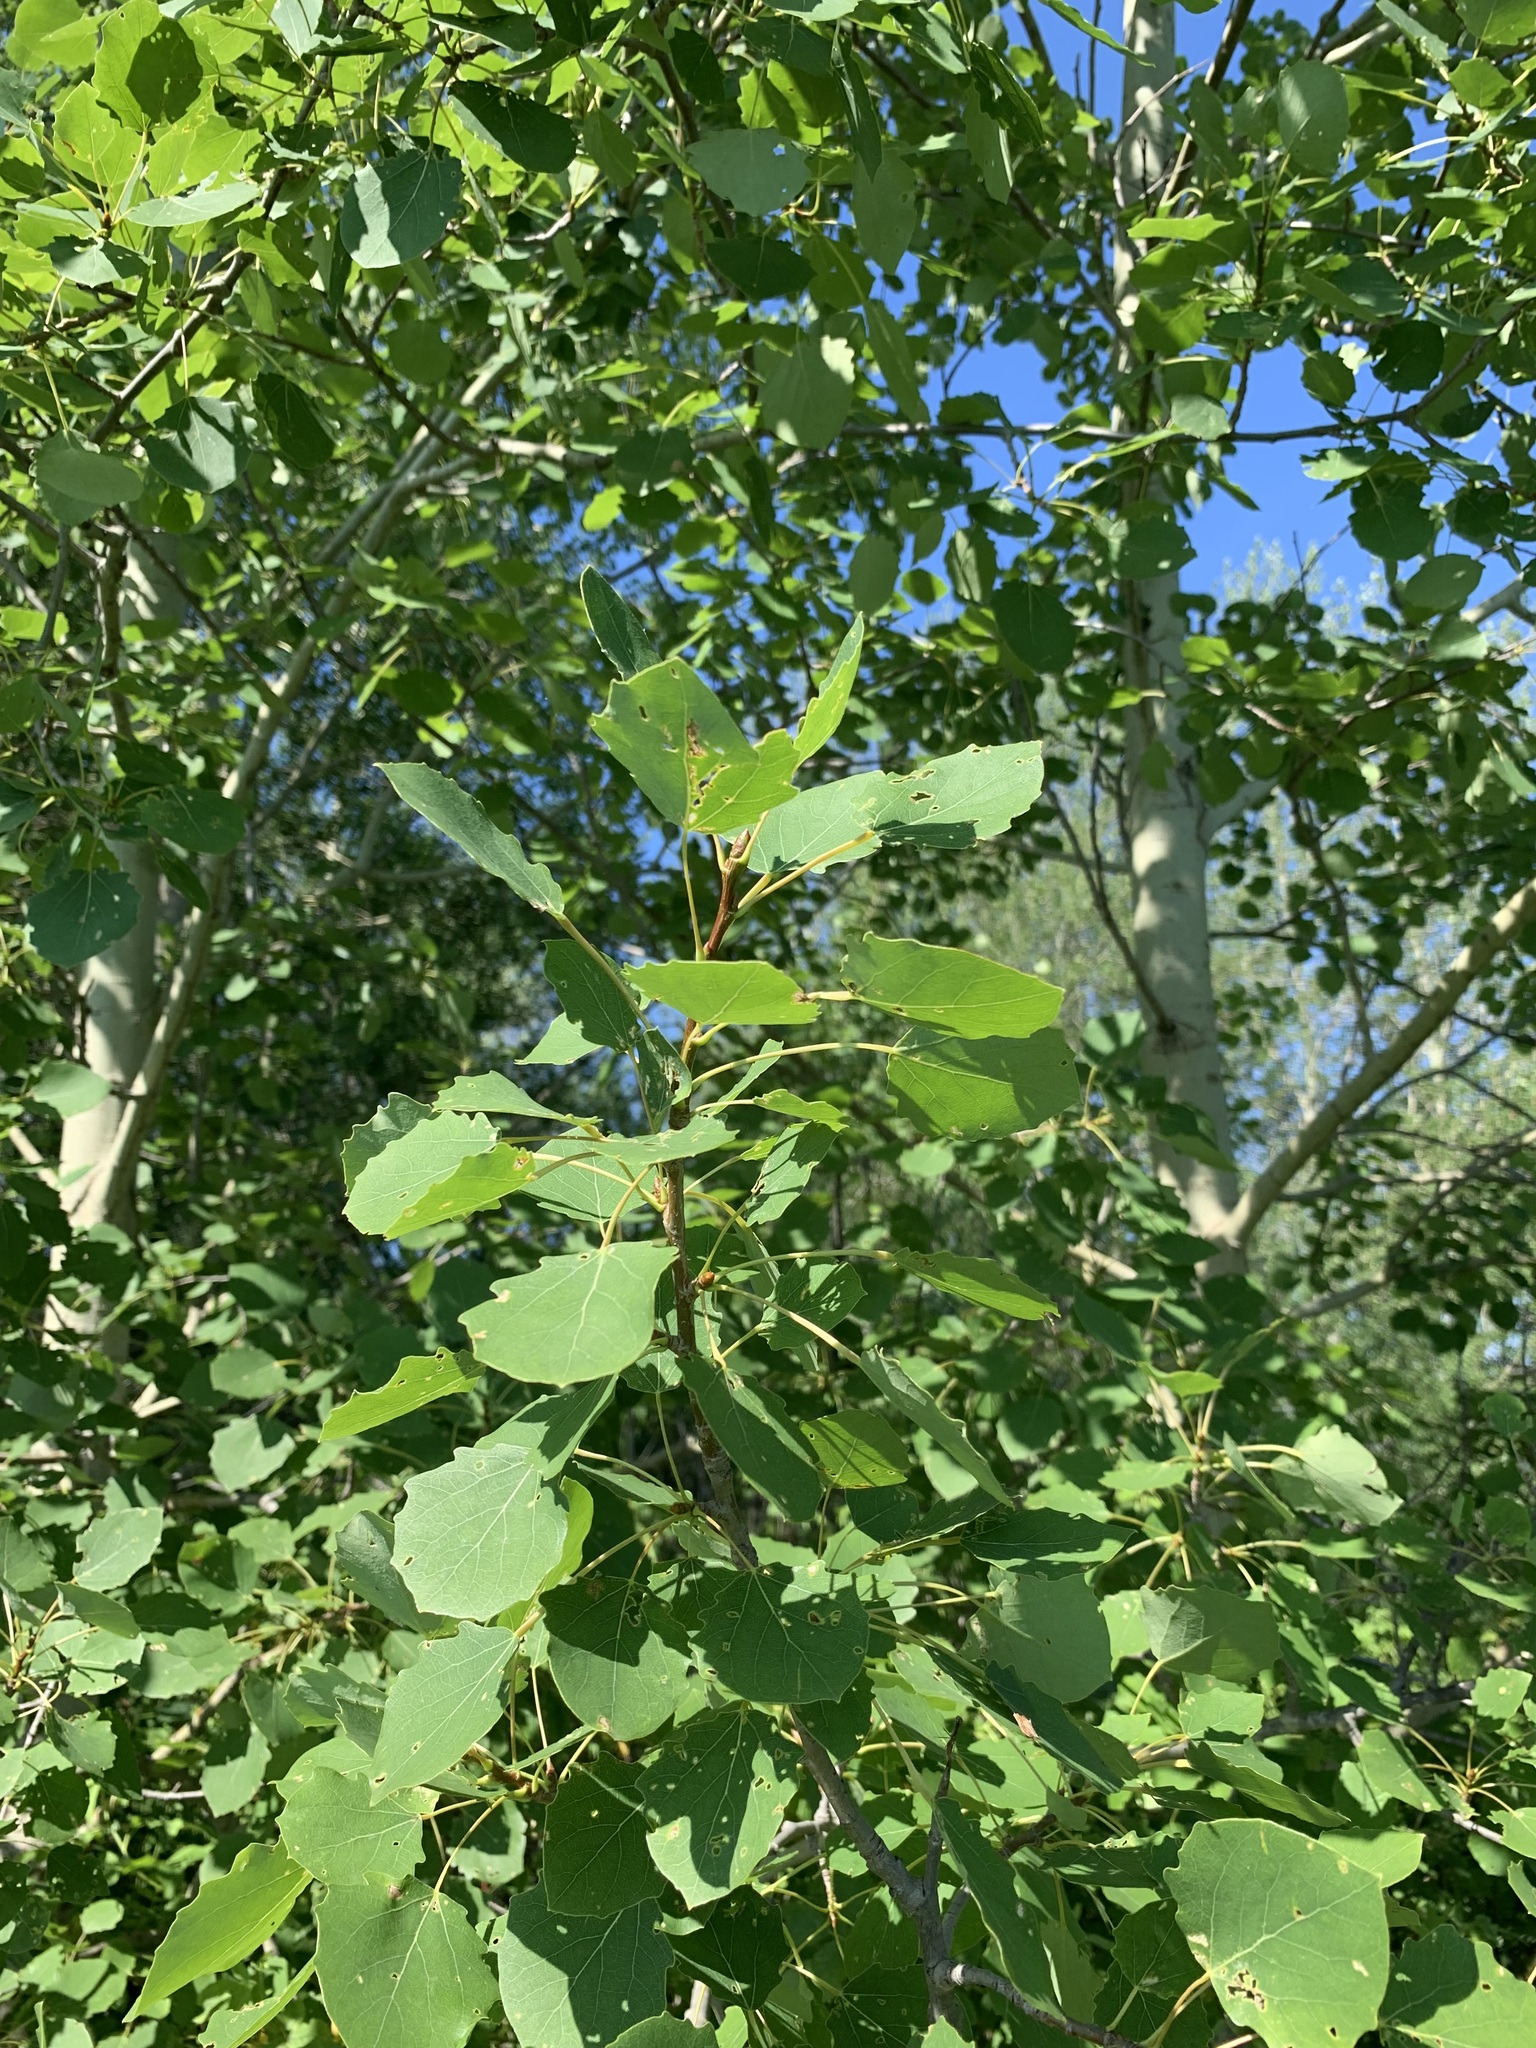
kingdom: Plantae
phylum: Tracheophyta
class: Magnoliopsida
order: Malpighiales
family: Salicaceae
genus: Populus
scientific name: Populus tremula
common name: European aspen
